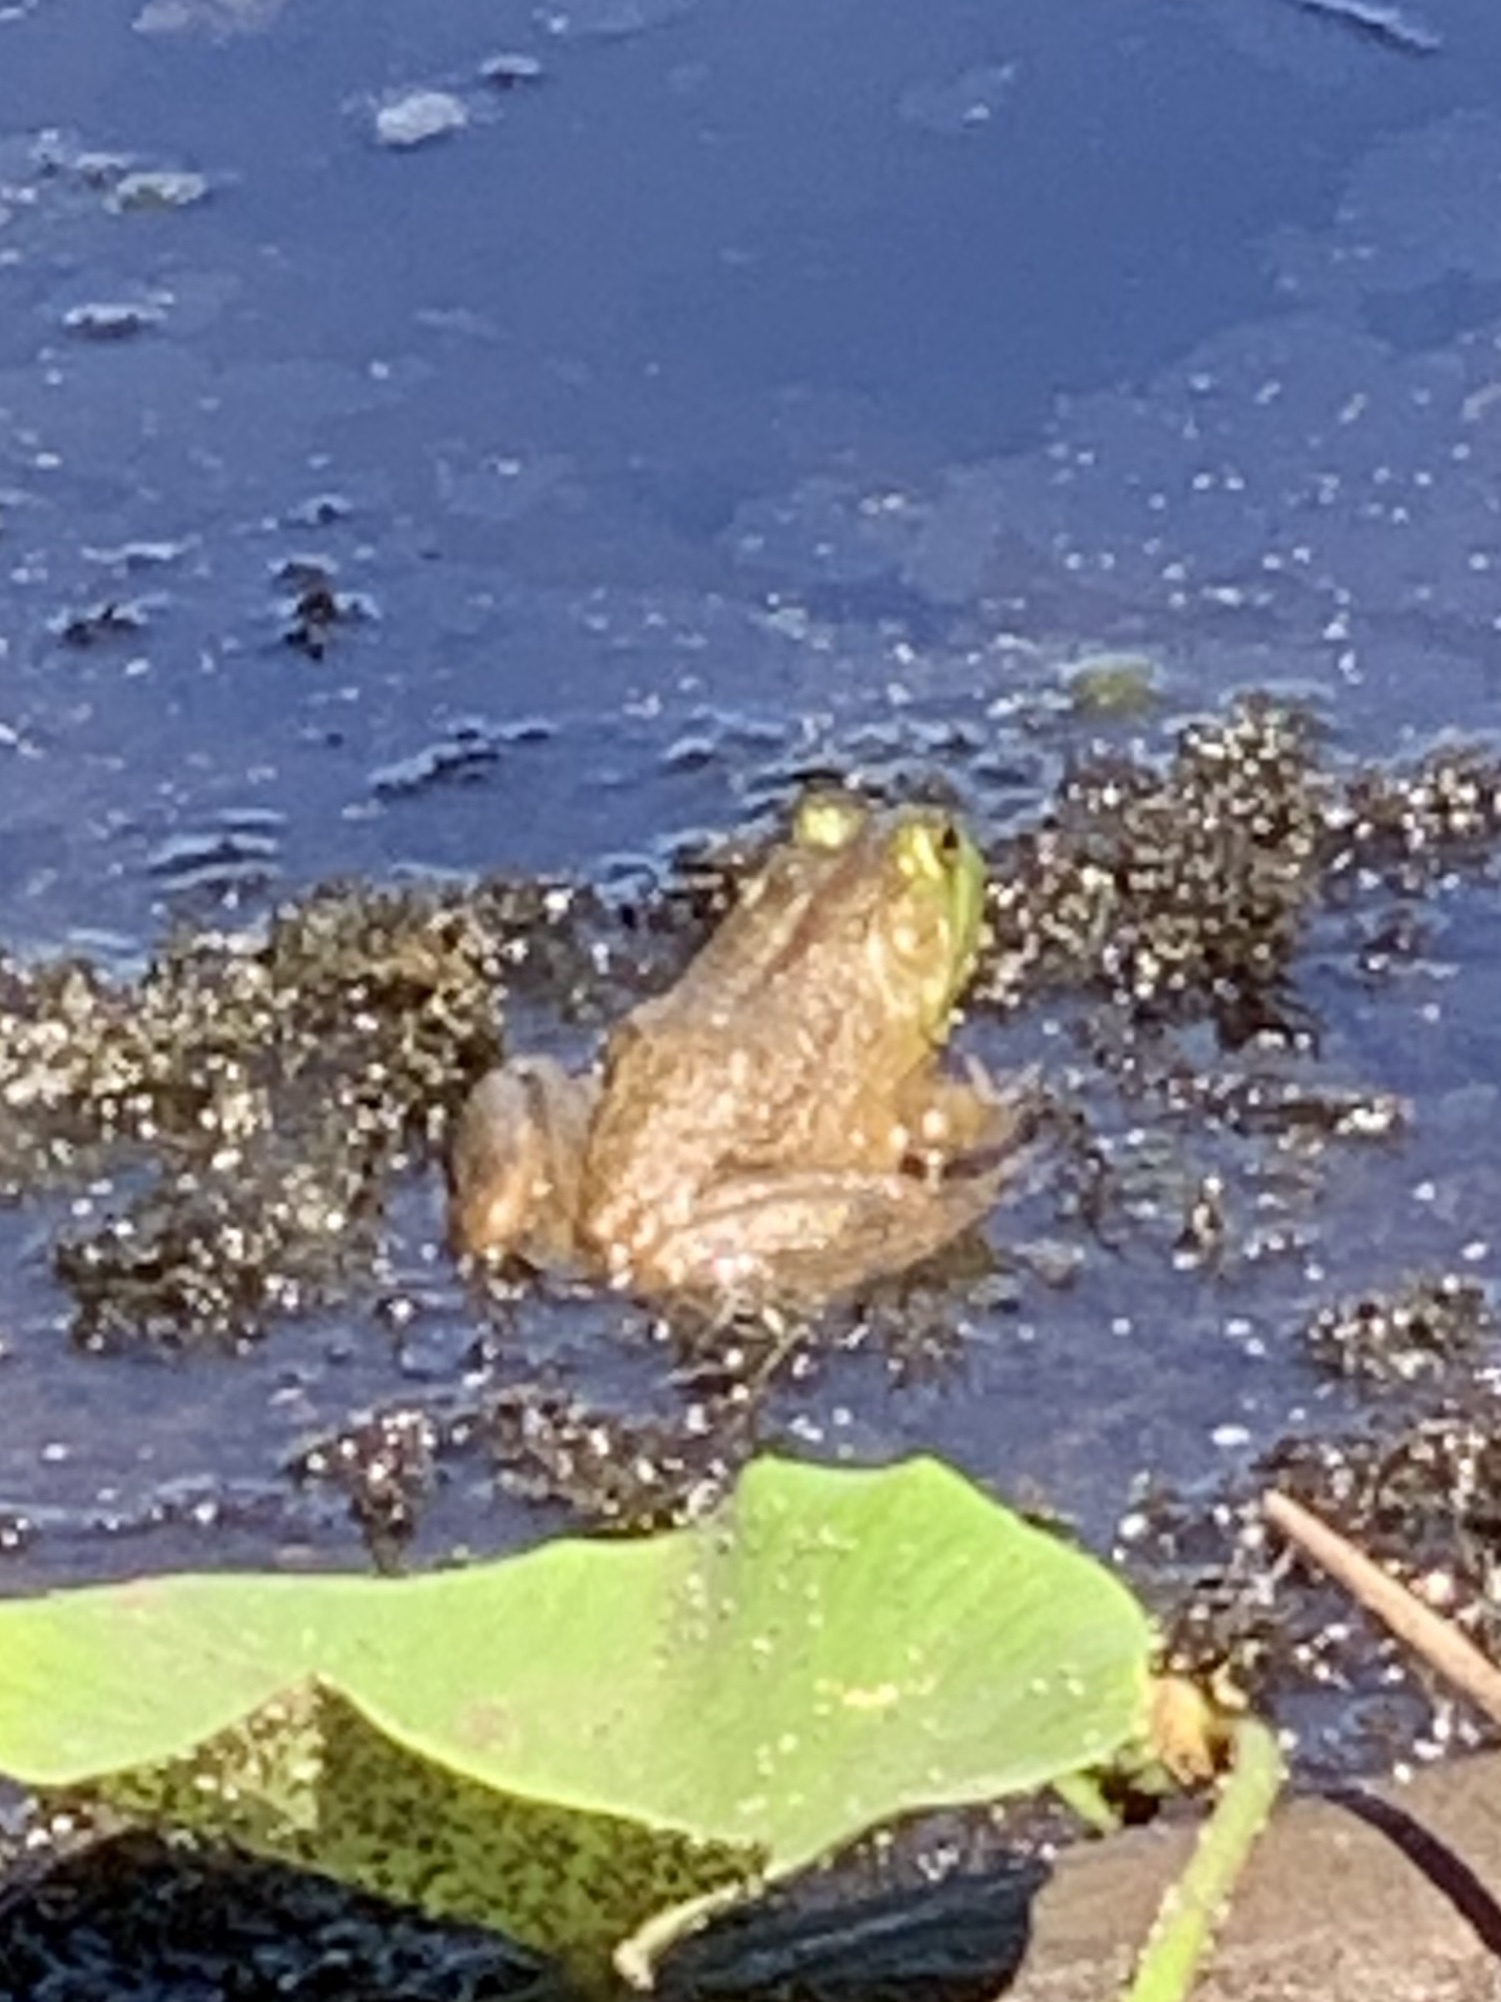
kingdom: Animalia
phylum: Chordata
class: Amphibia
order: Anura
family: Ranidae
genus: Lithobates
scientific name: Lithobates catesbeianus
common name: American bullfrog
